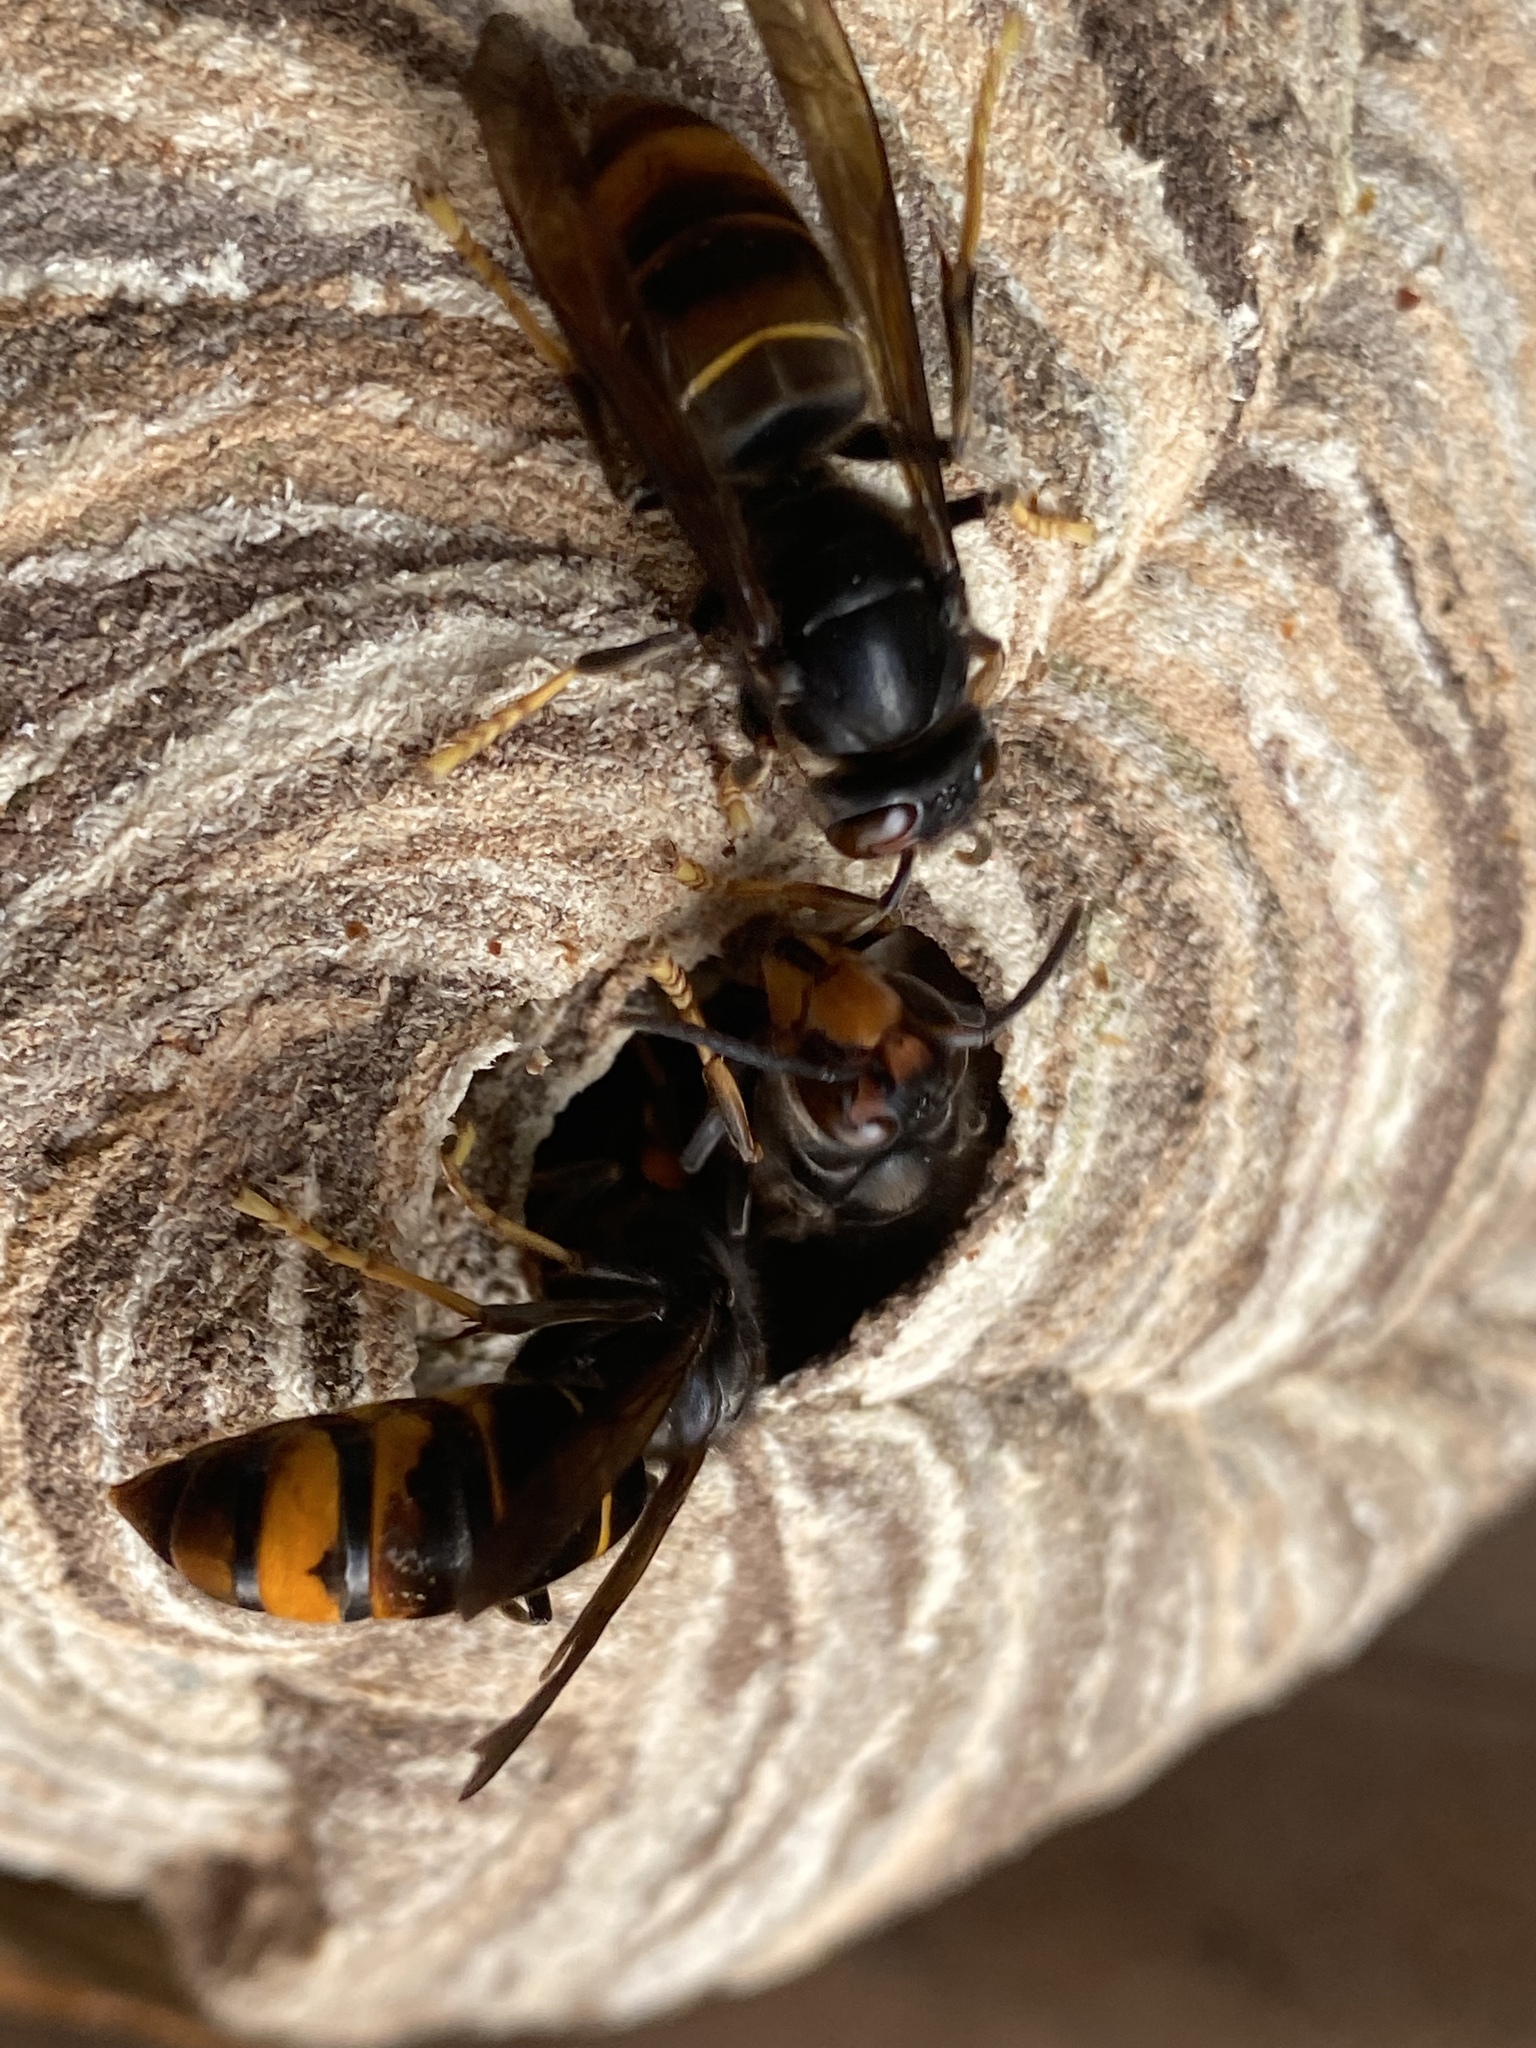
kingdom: Animalia
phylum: Arthropoda
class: Insecta
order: Hymenoptera
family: Vespidae
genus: Vespa
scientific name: Vespa velutina
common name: Asian hornet
